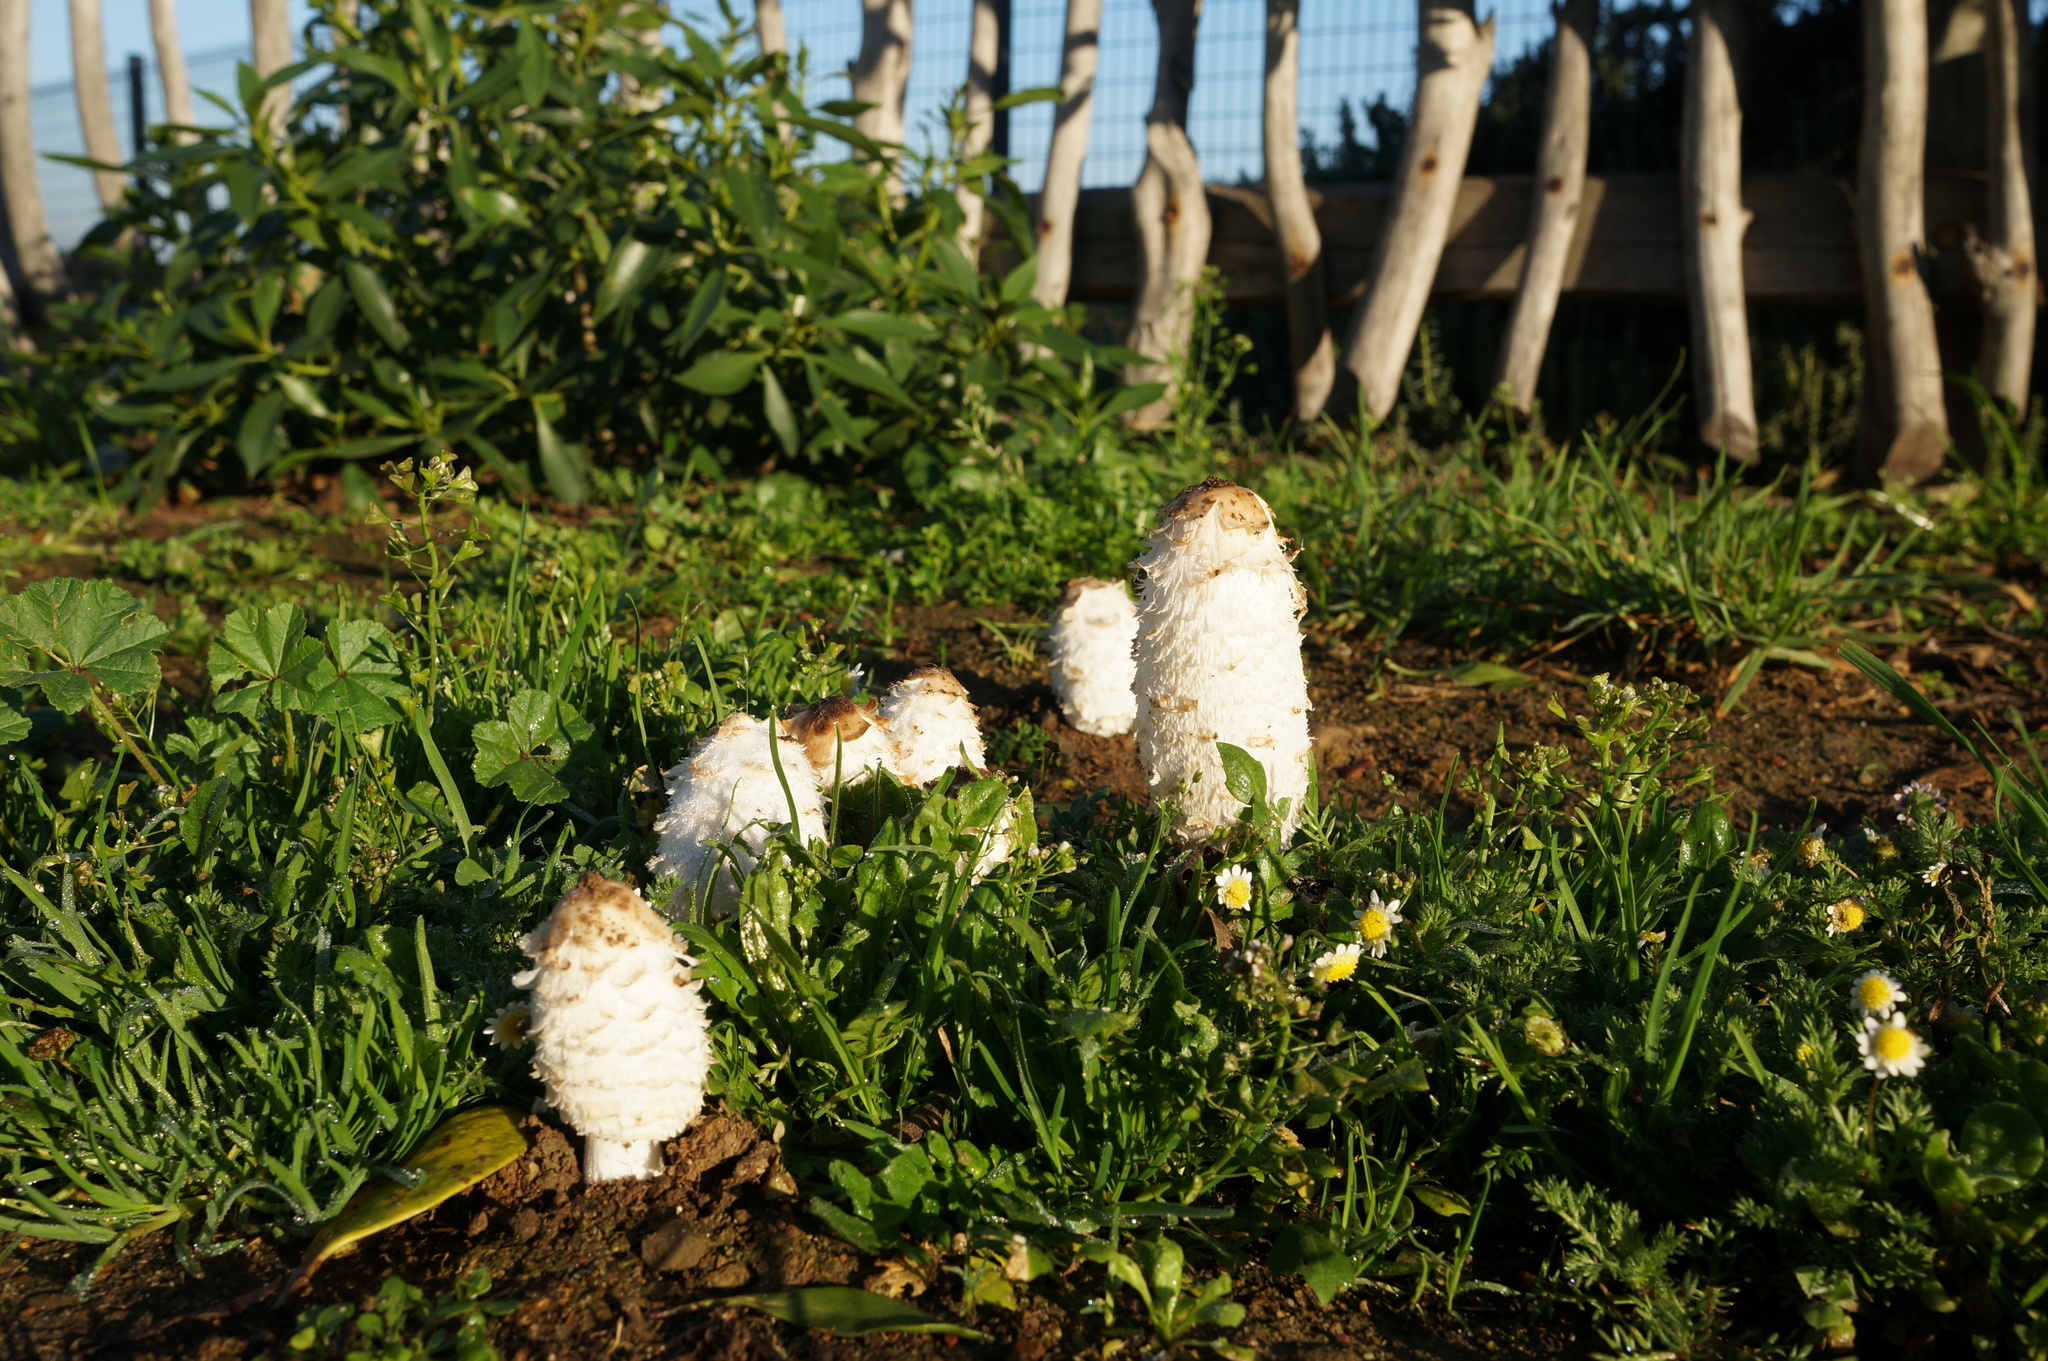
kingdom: Fungi
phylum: Basidiomycota
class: Agaricomycetes
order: Agaricales
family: Agaricaceae
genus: Coprinus
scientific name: Coprinus comatus
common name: Lawyer's wig
